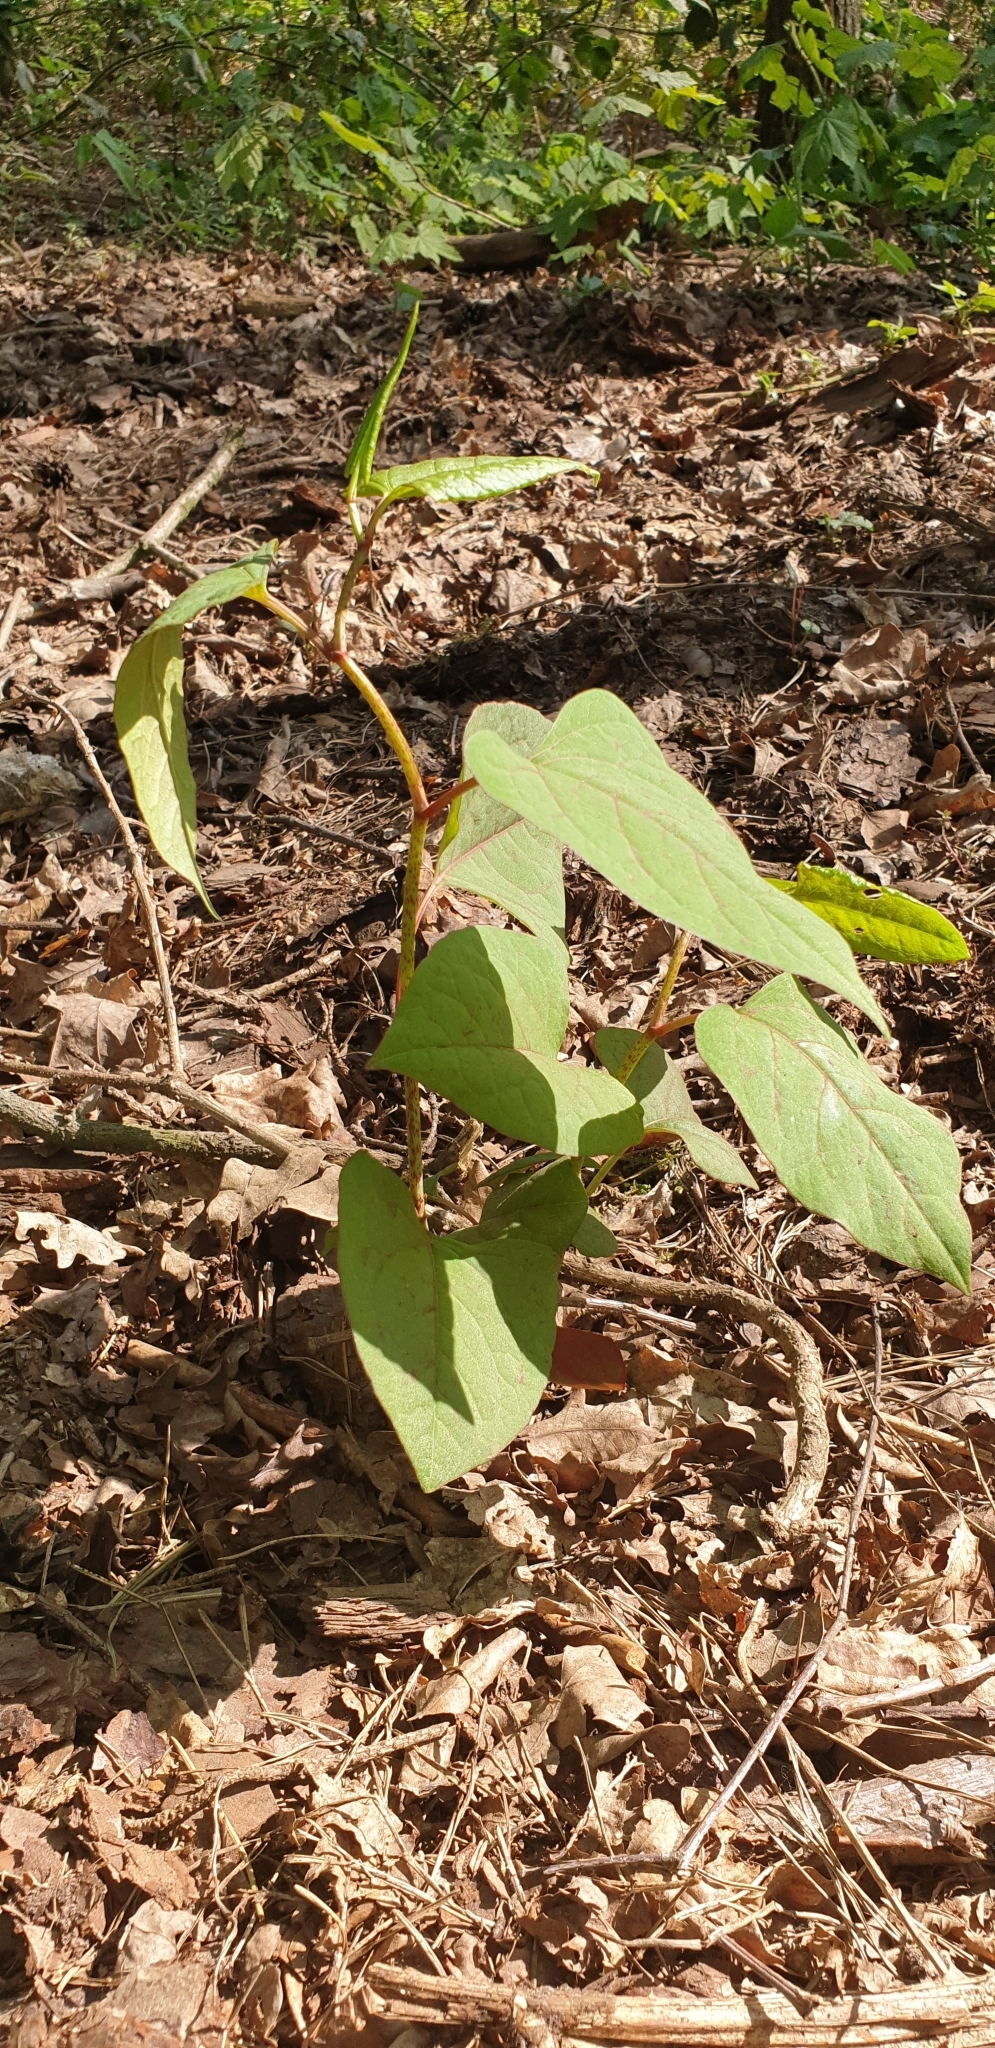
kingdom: Plantae
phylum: Tracheophyta
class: Magnoliopsida
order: Caryophyllales
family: Polygonaceae
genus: Reynoutria
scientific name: Reynoutria japonica
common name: Japanese knotweed
